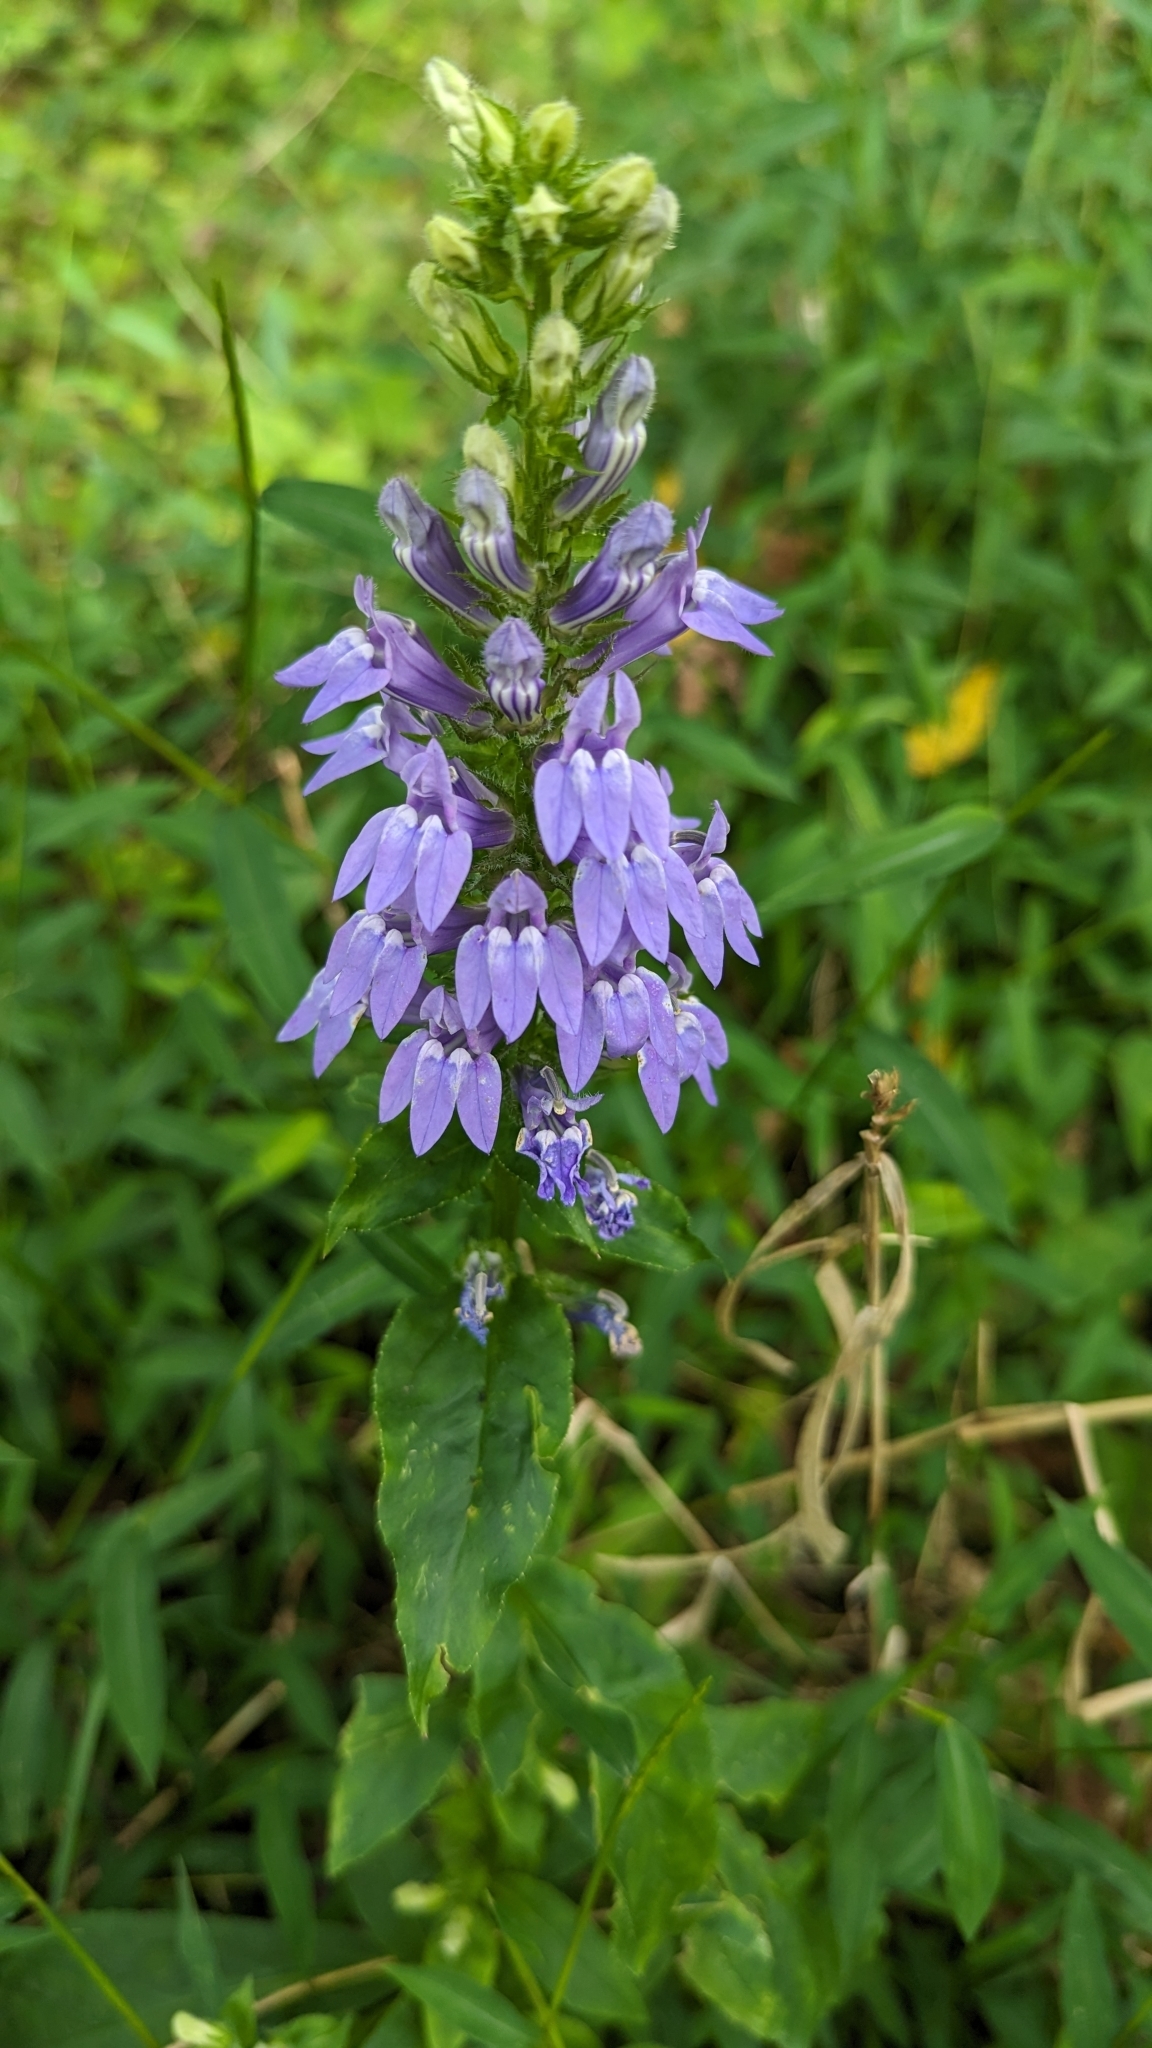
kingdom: Plantae
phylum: Tracheophyta
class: Magnoliopsida
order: Asterales
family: Campanulaceae
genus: Lobelia
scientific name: Lobelia siphilitica
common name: Great lobelia
